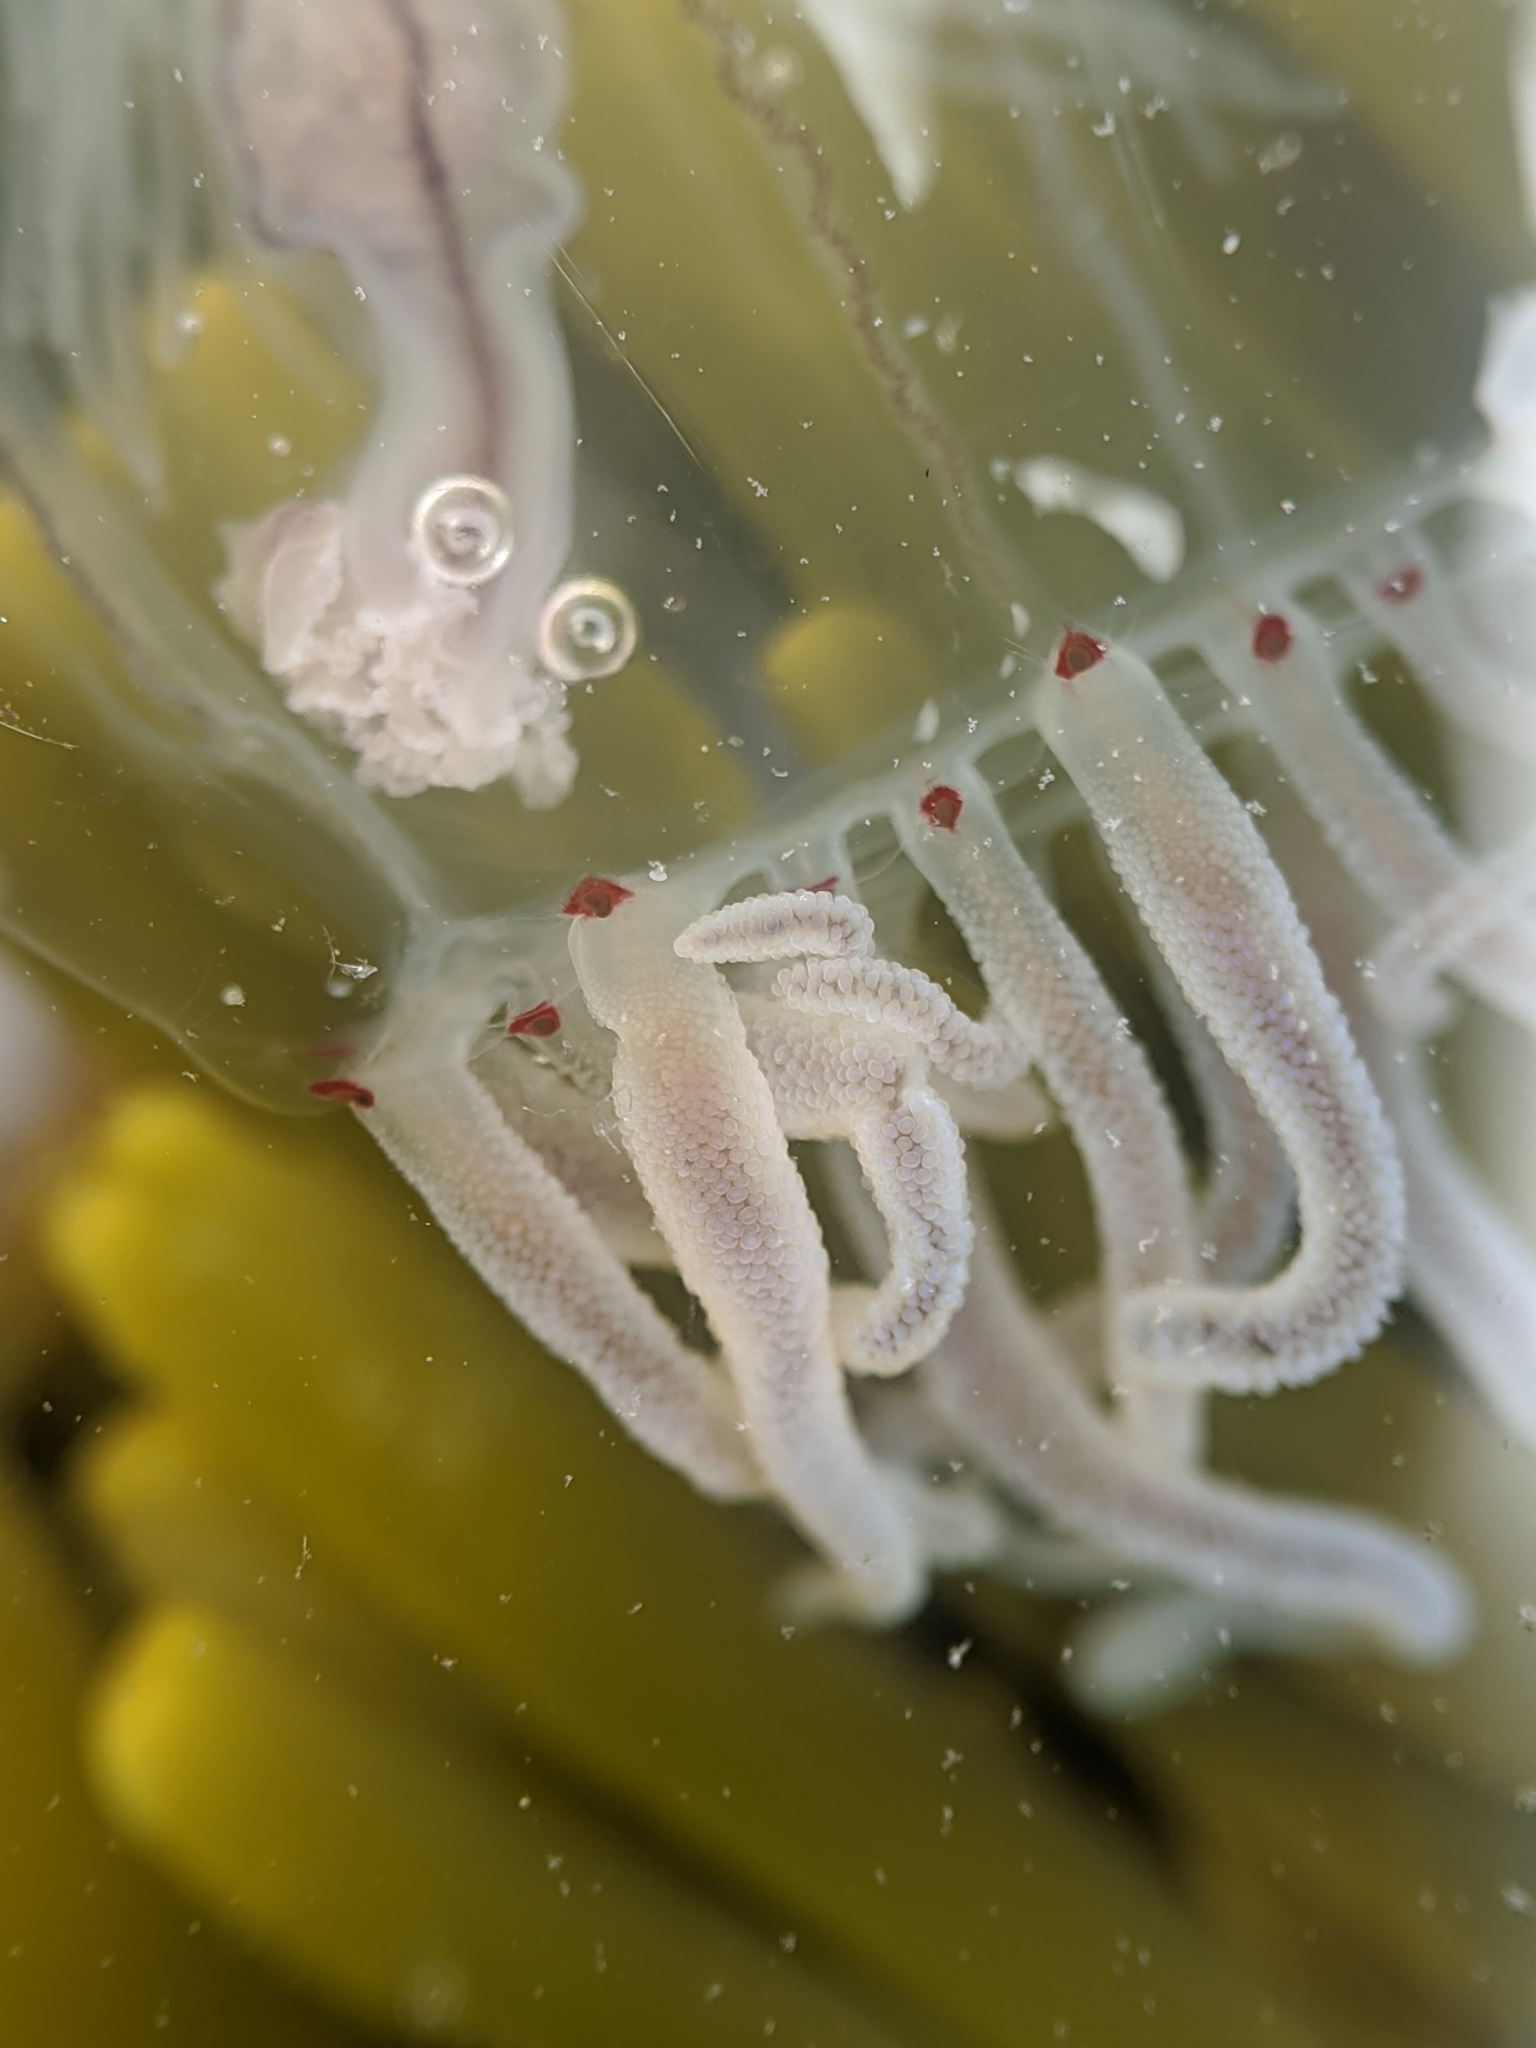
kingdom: Animalia
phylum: Cnidaria
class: Hydrozoa
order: Anthoathecata
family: Corynidae
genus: Polyorchis
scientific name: Polyorchis haplus
